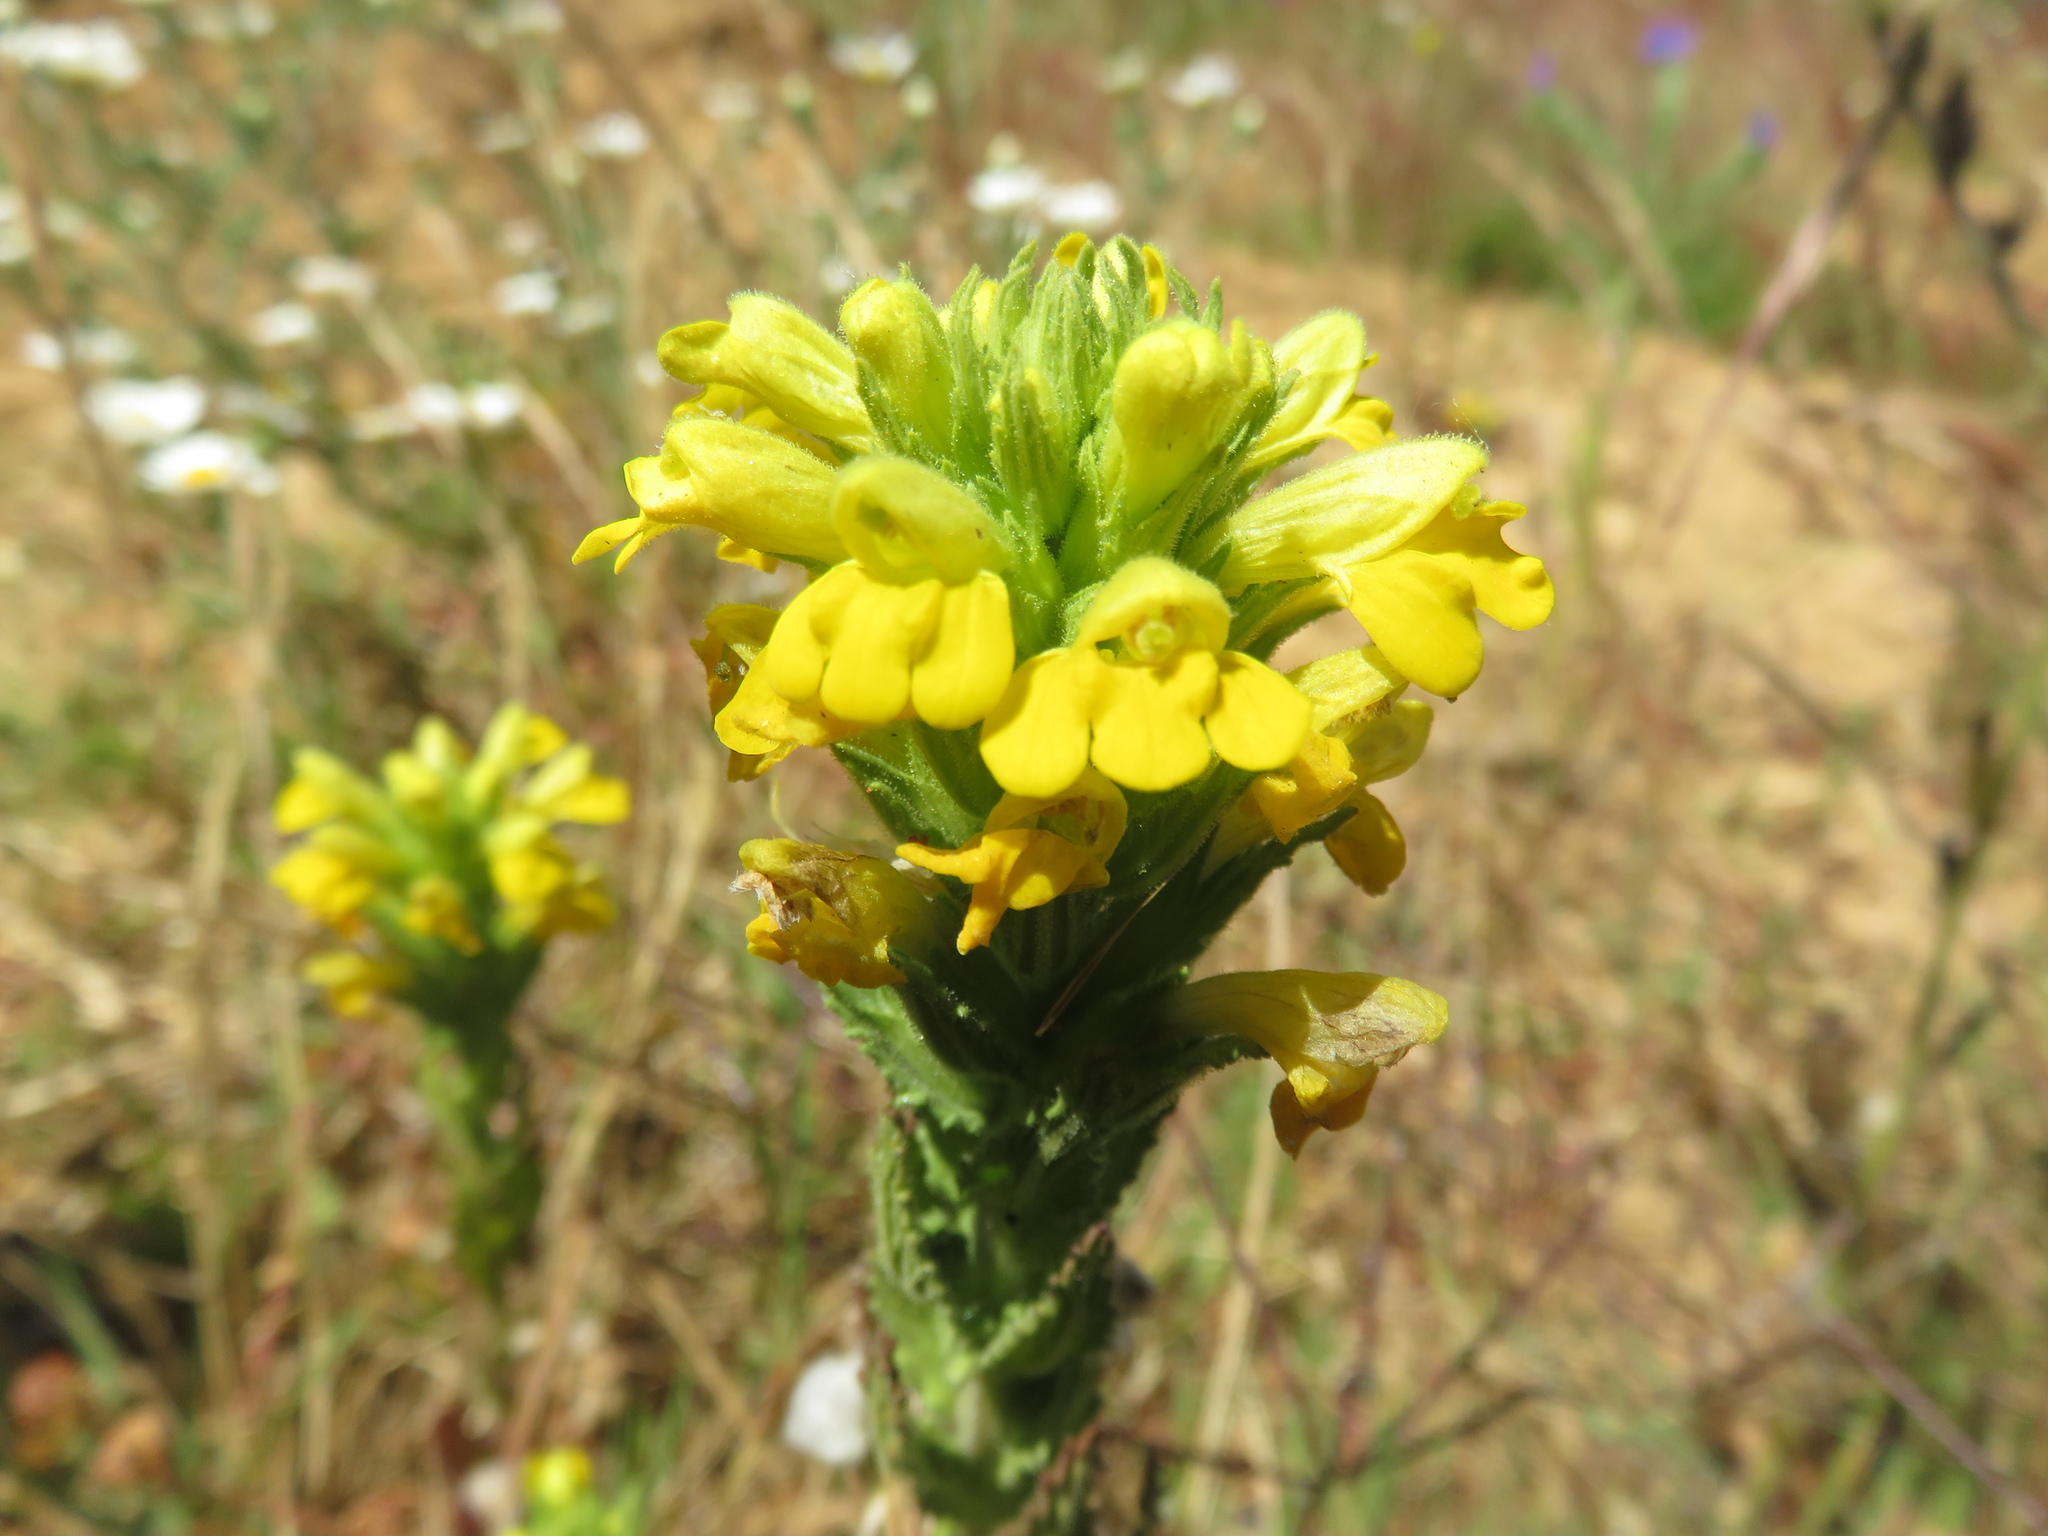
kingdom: Plantae
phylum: Tracheophyta
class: Magnoliopsida
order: Lamiales
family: Orobanchaceae
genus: Bellardia
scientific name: Bellardia viscosa
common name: Sticky parentucellia
